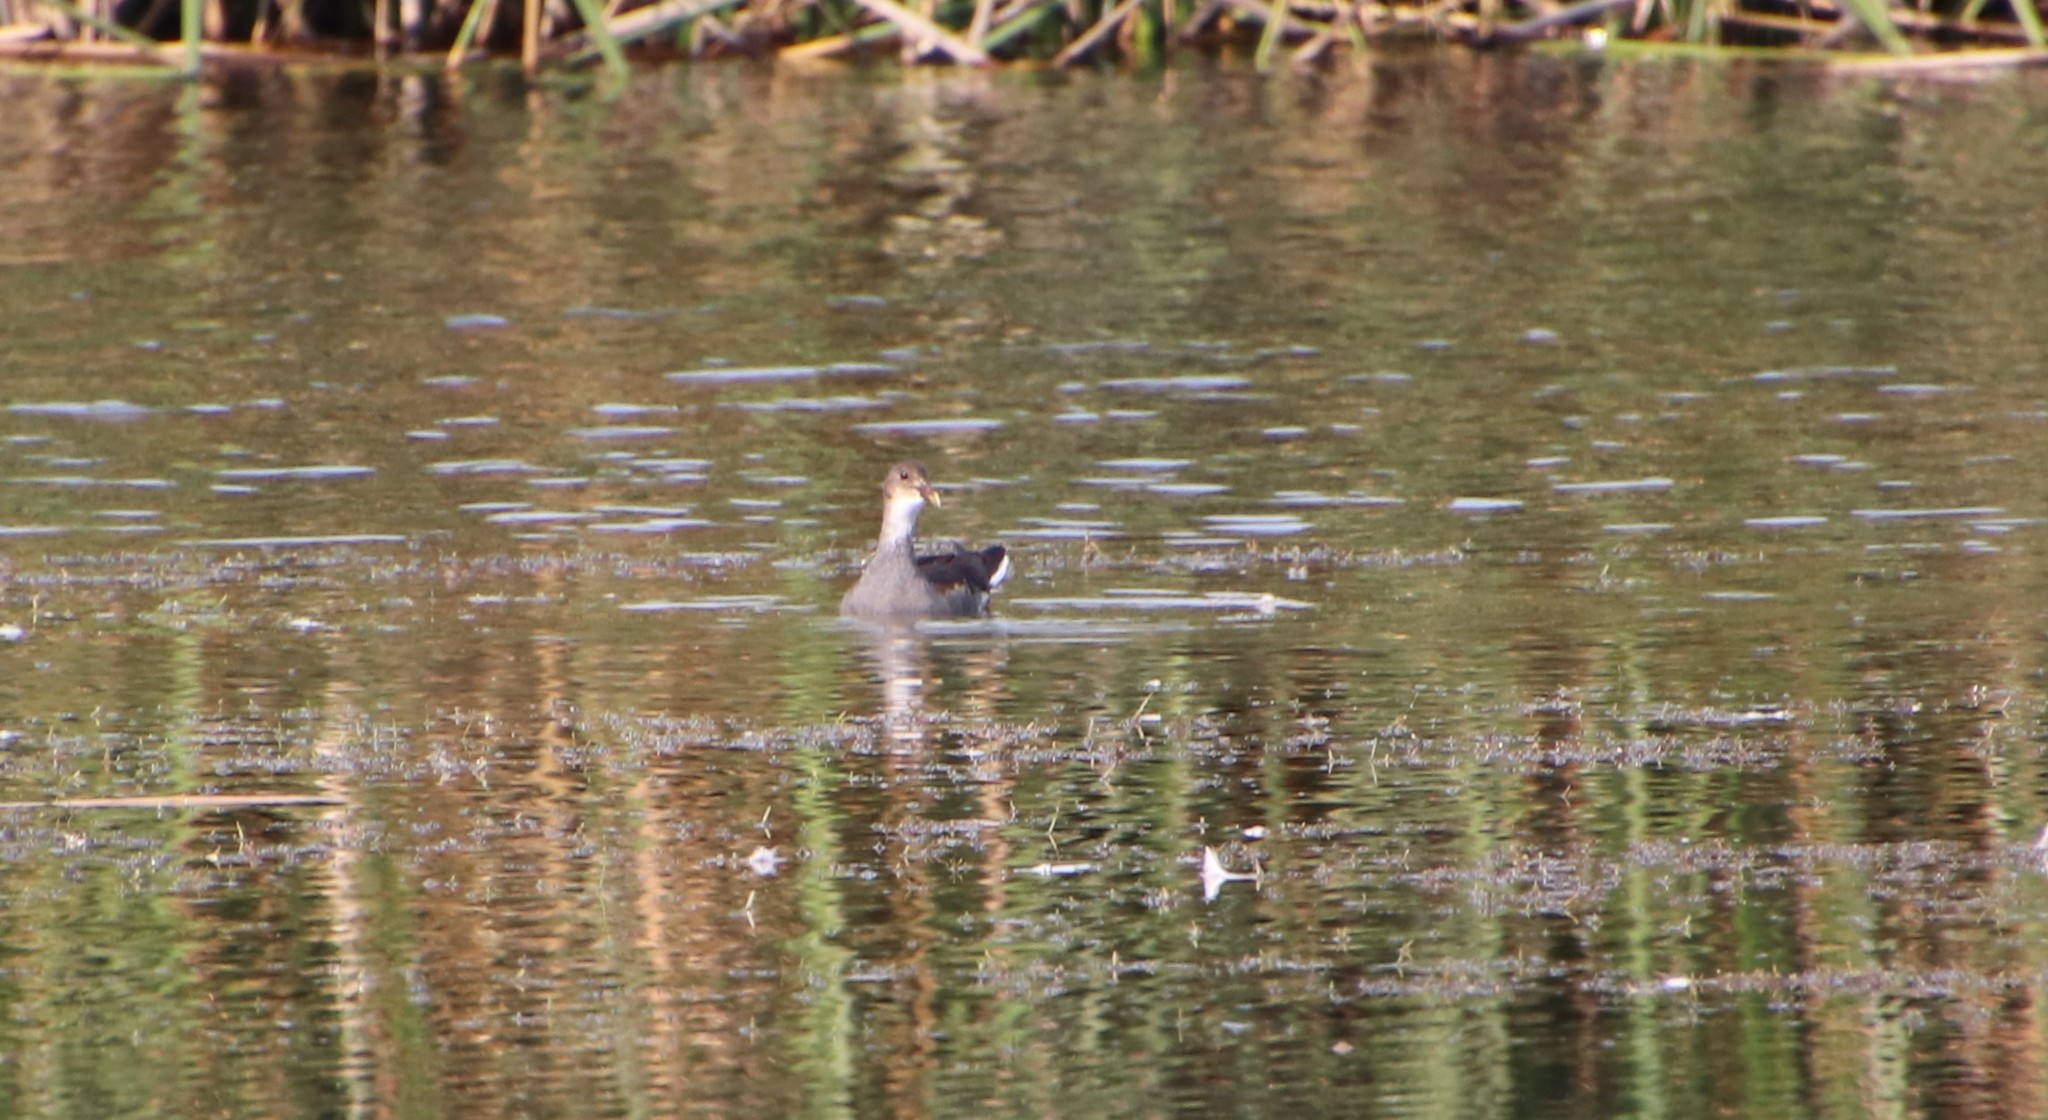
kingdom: Animalia
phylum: Chordata
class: Aves
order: Gruiformes
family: Rallidae
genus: Gallinula
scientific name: Gallinula chloropus
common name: Common moorhen
